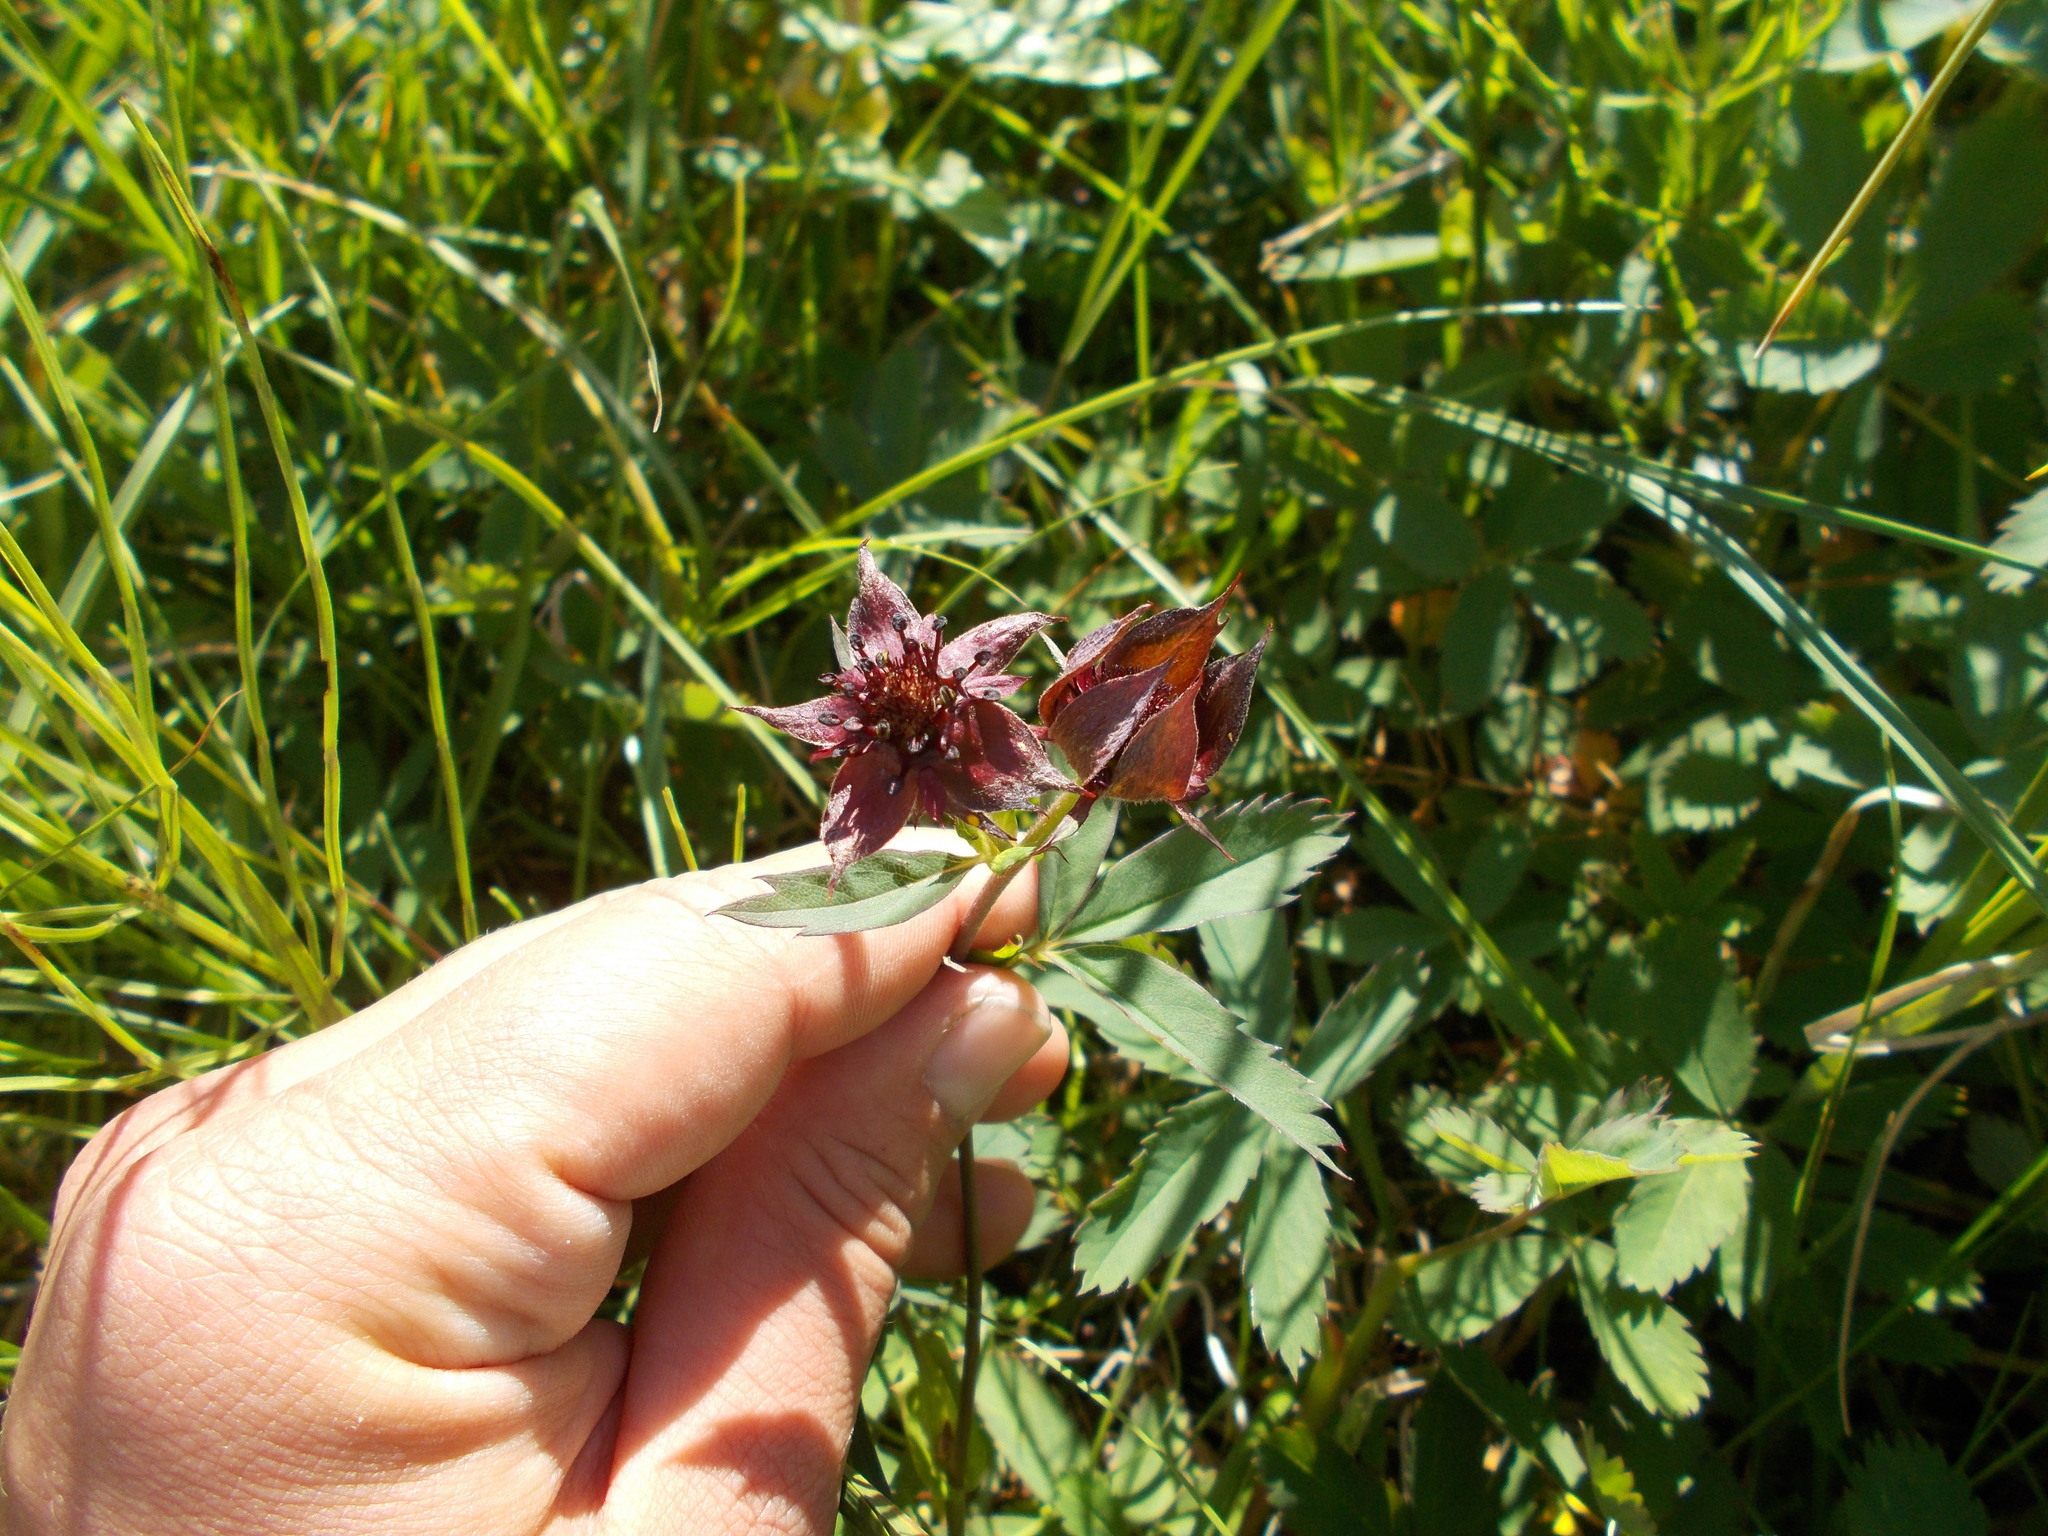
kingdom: Plantae
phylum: Tracheophyta
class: Magnoliopsida
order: Rosales
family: Rosaceae
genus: Comarum
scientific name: Comarum palustre
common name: Marsh cinquefoil
